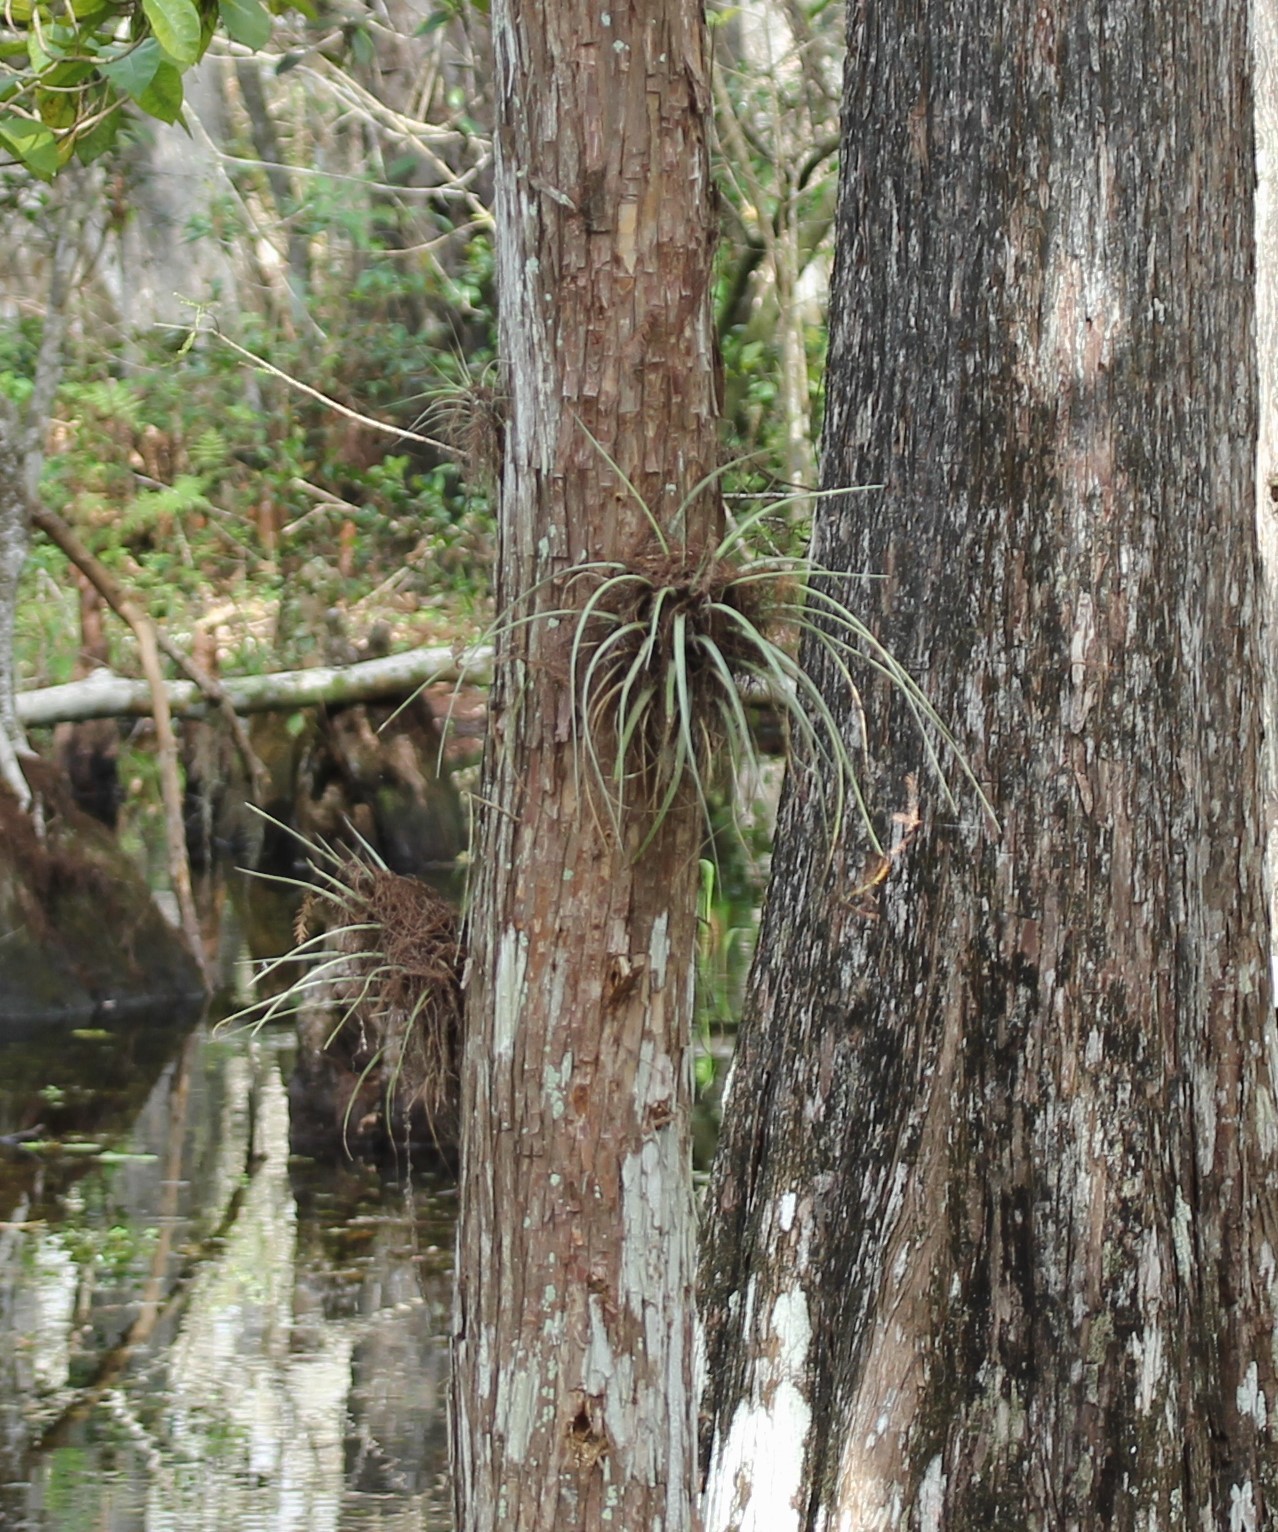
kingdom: Plantae
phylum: Tracheophyta
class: Liliopsida
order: Poales
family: Bromeliaceae
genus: Tillandsia
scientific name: Tillandsia fasciculata
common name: Giant airplant
